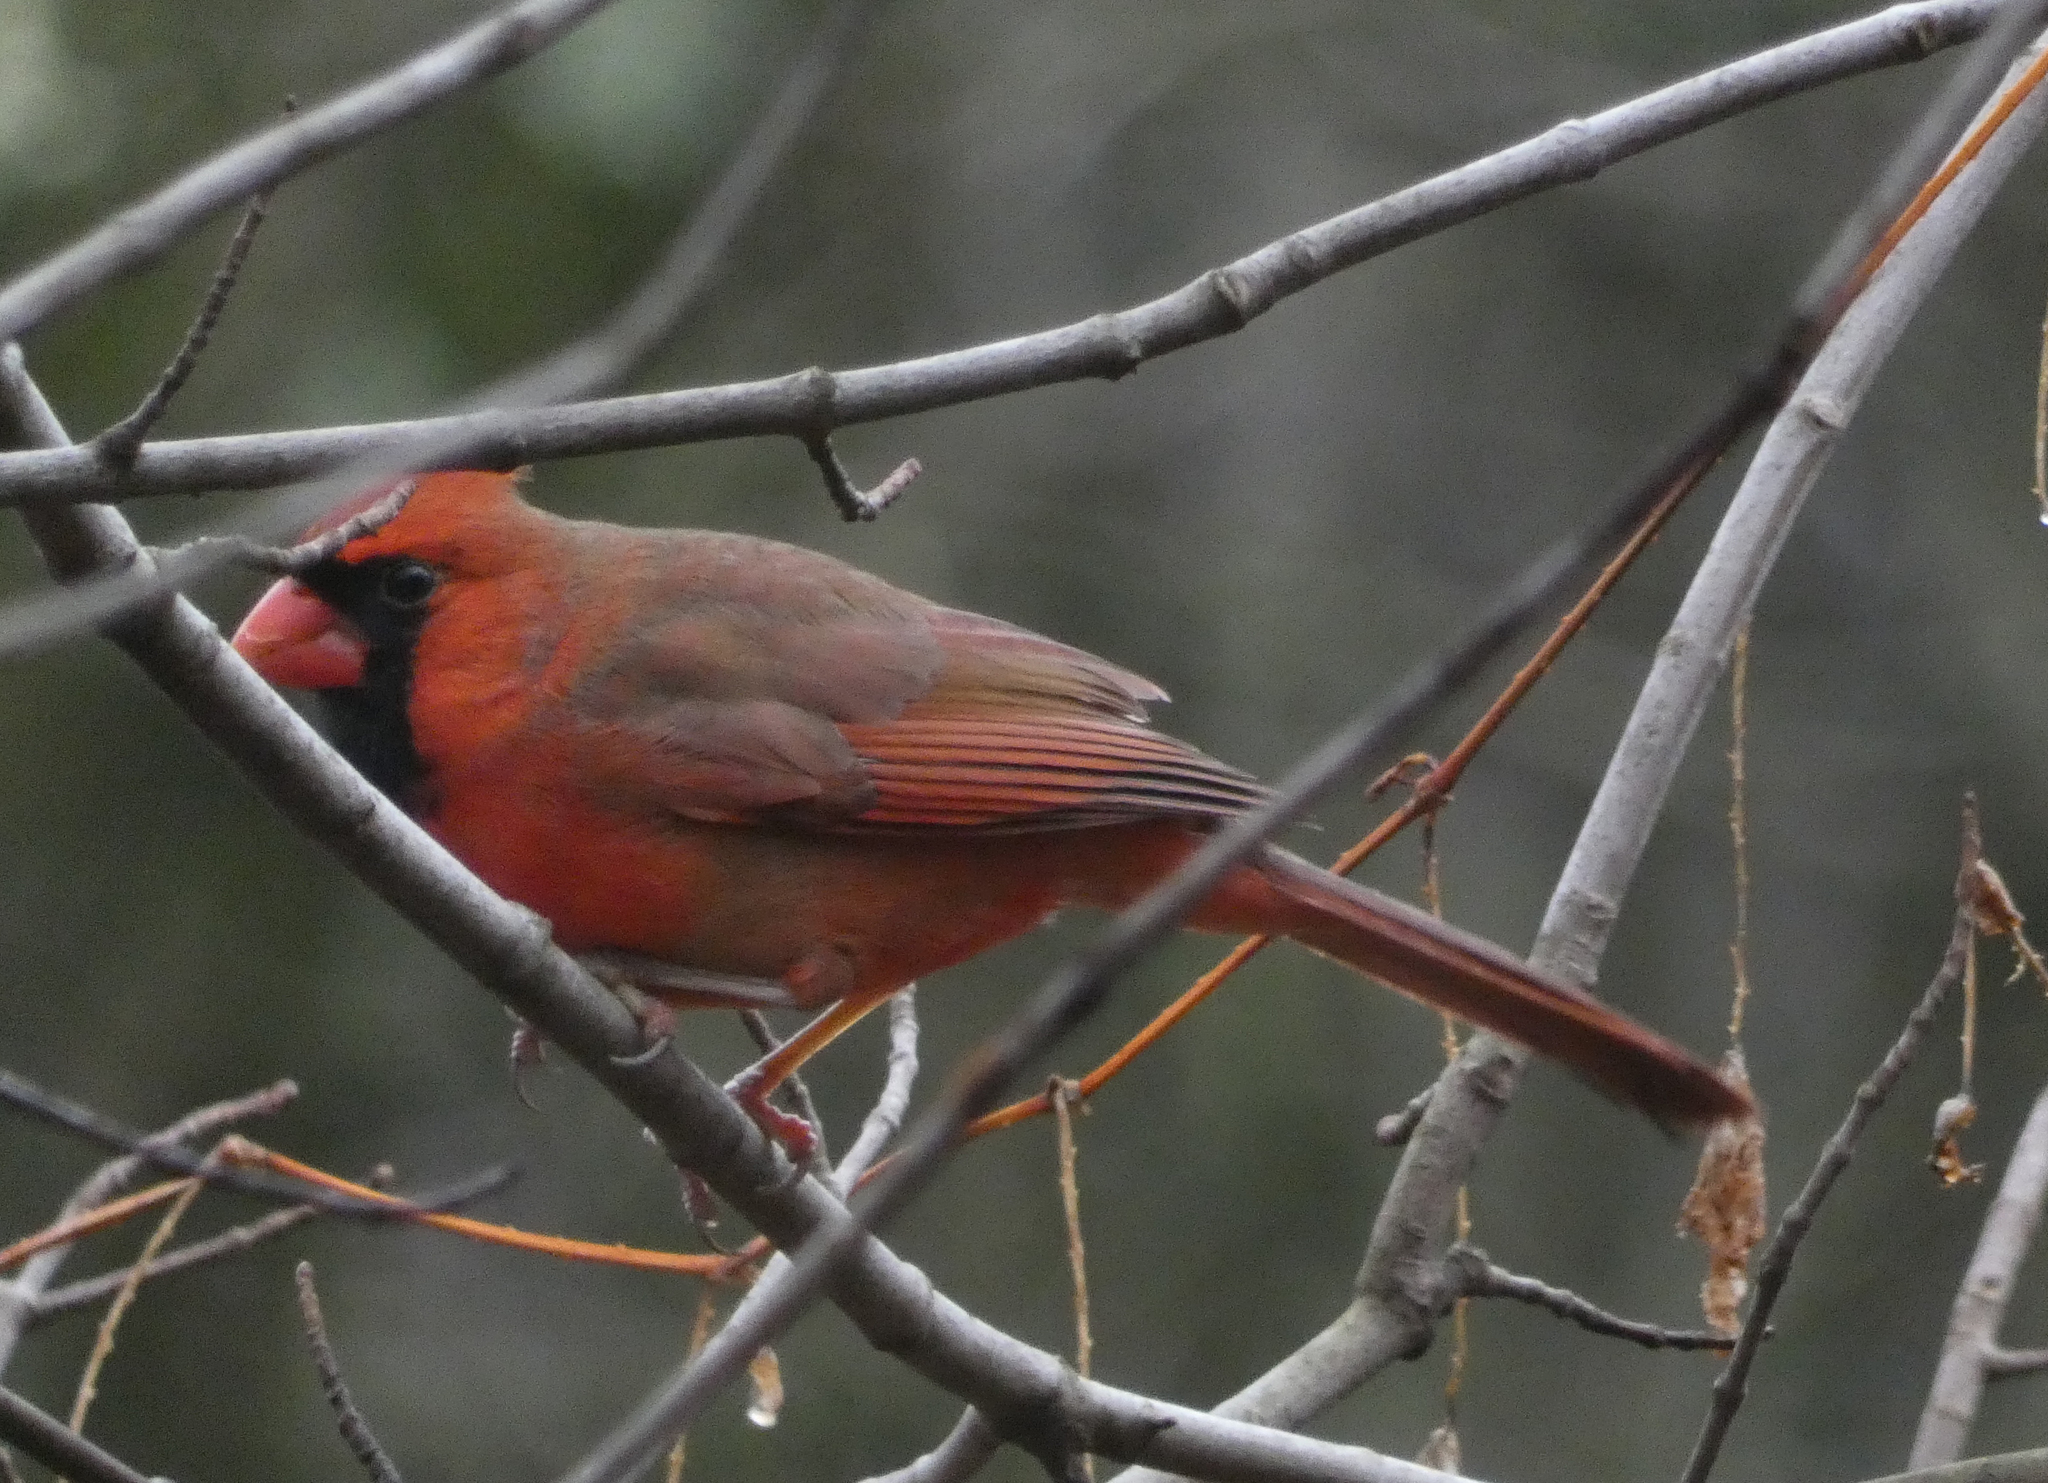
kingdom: Animalia
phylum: Chordata
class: Aves
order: Passeriformes
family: Cardinalidae
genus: Cardinalis
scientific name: Cardinalis cardinalis
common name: Northern cardinal
